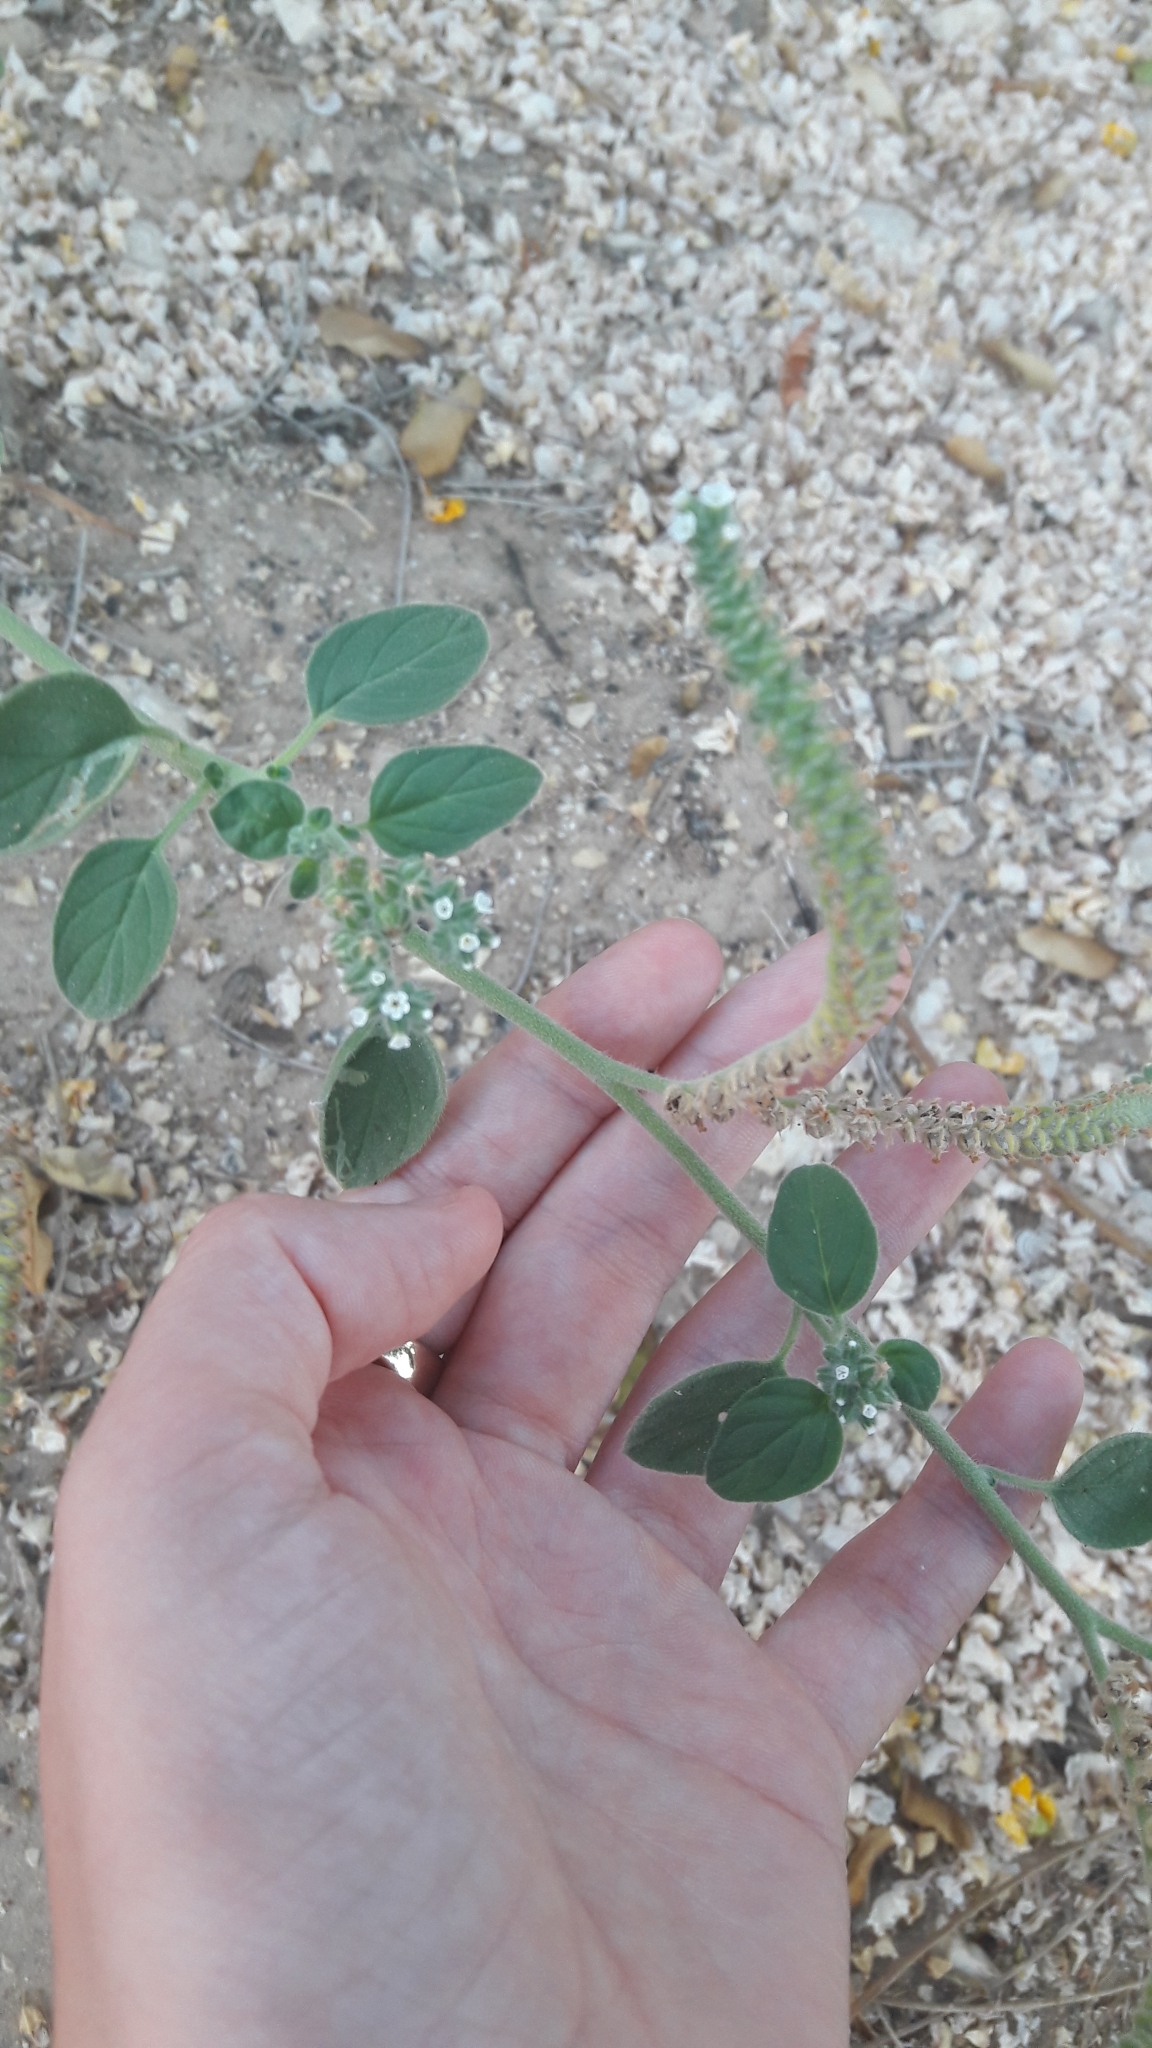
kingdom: Plantae
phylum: Tracheophyta
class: Magnoliopsida
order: Boraginales
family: Heliotropiaceae
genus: Heliotropium
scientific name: Heliotropium europaeum
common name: European heliotrope
